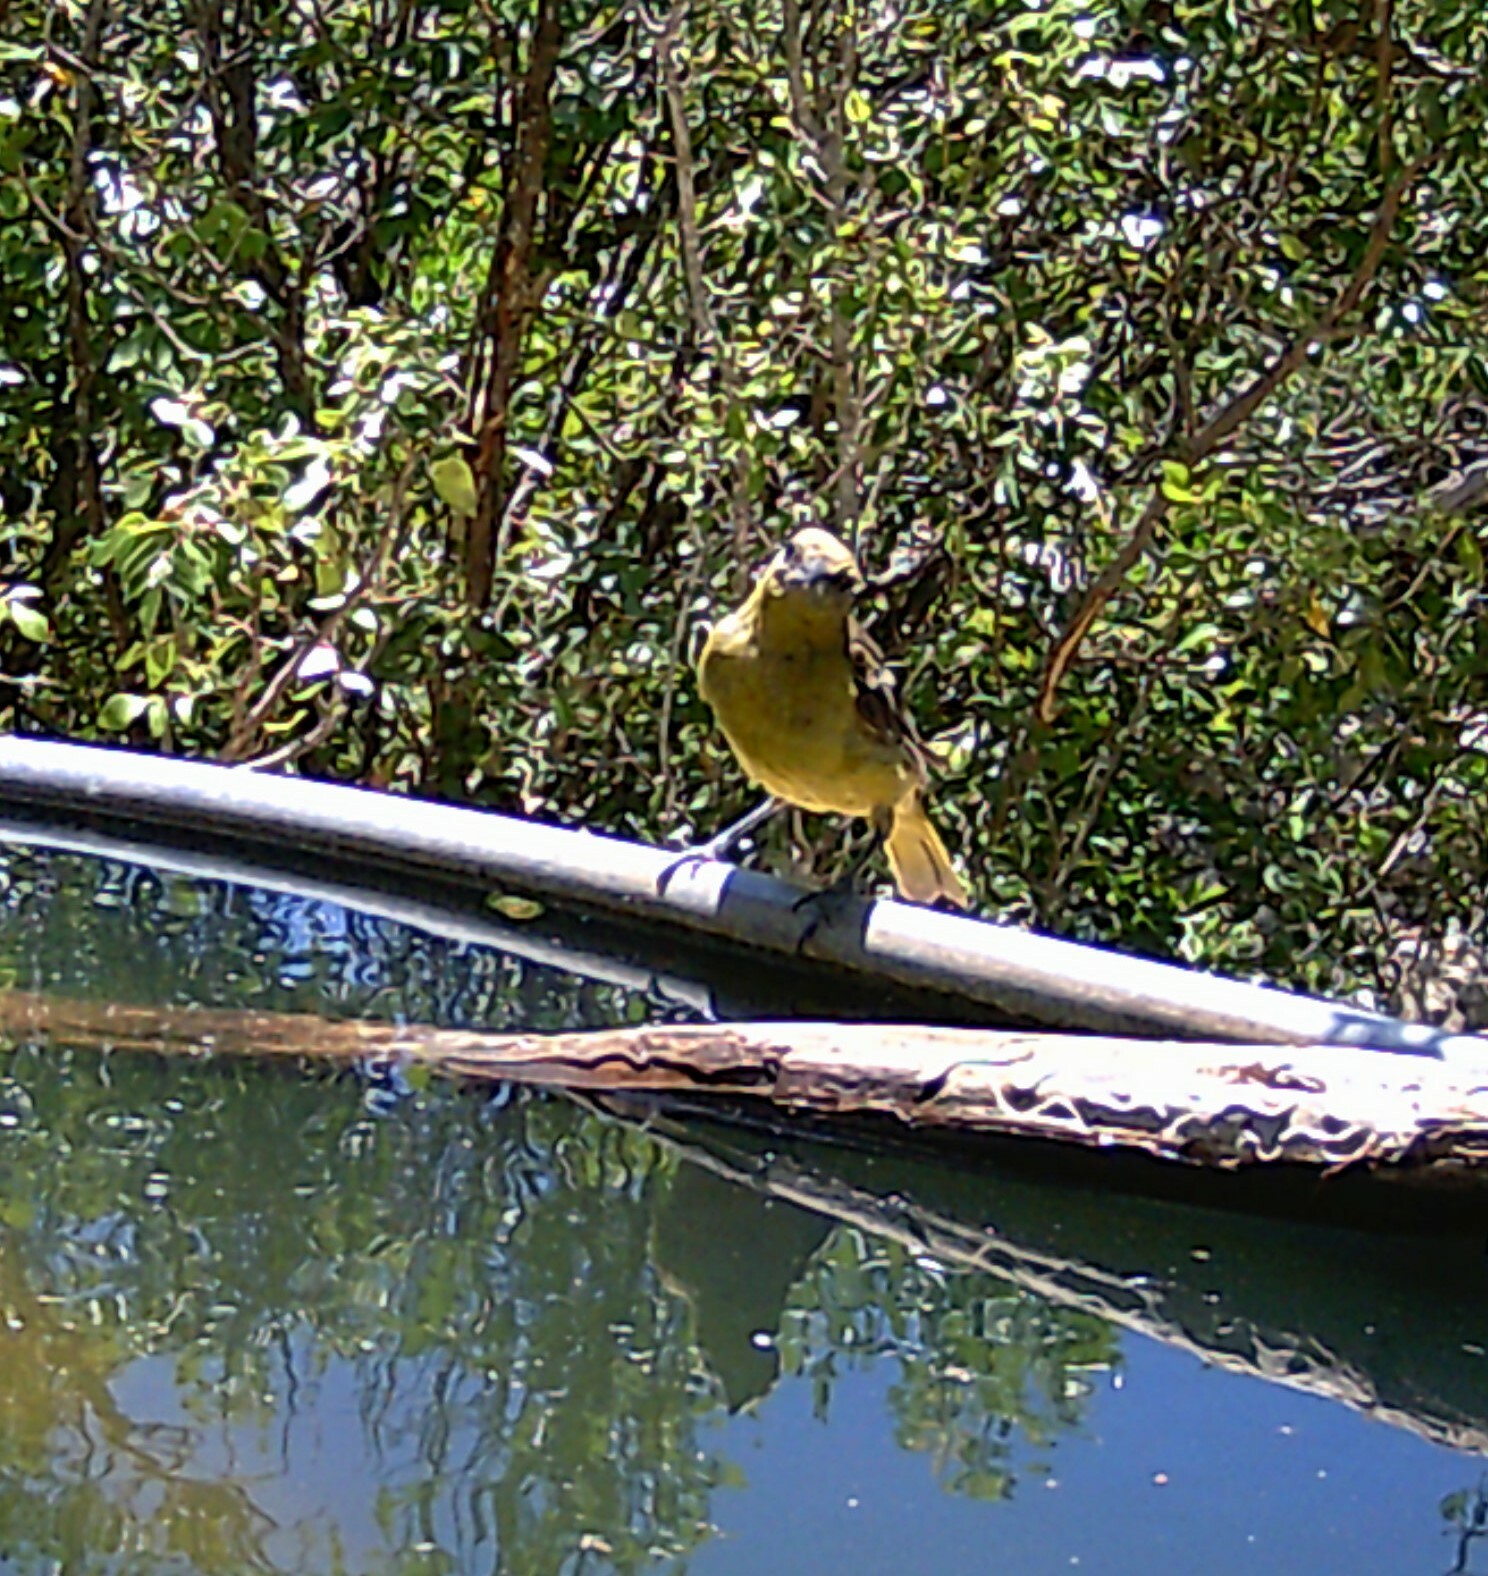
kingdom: Animalia
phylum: Chordata
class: Aves
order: Passeriformes
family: Icteridae
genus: Icterus
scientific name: Icterus parisorum
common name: Scott's oriole
